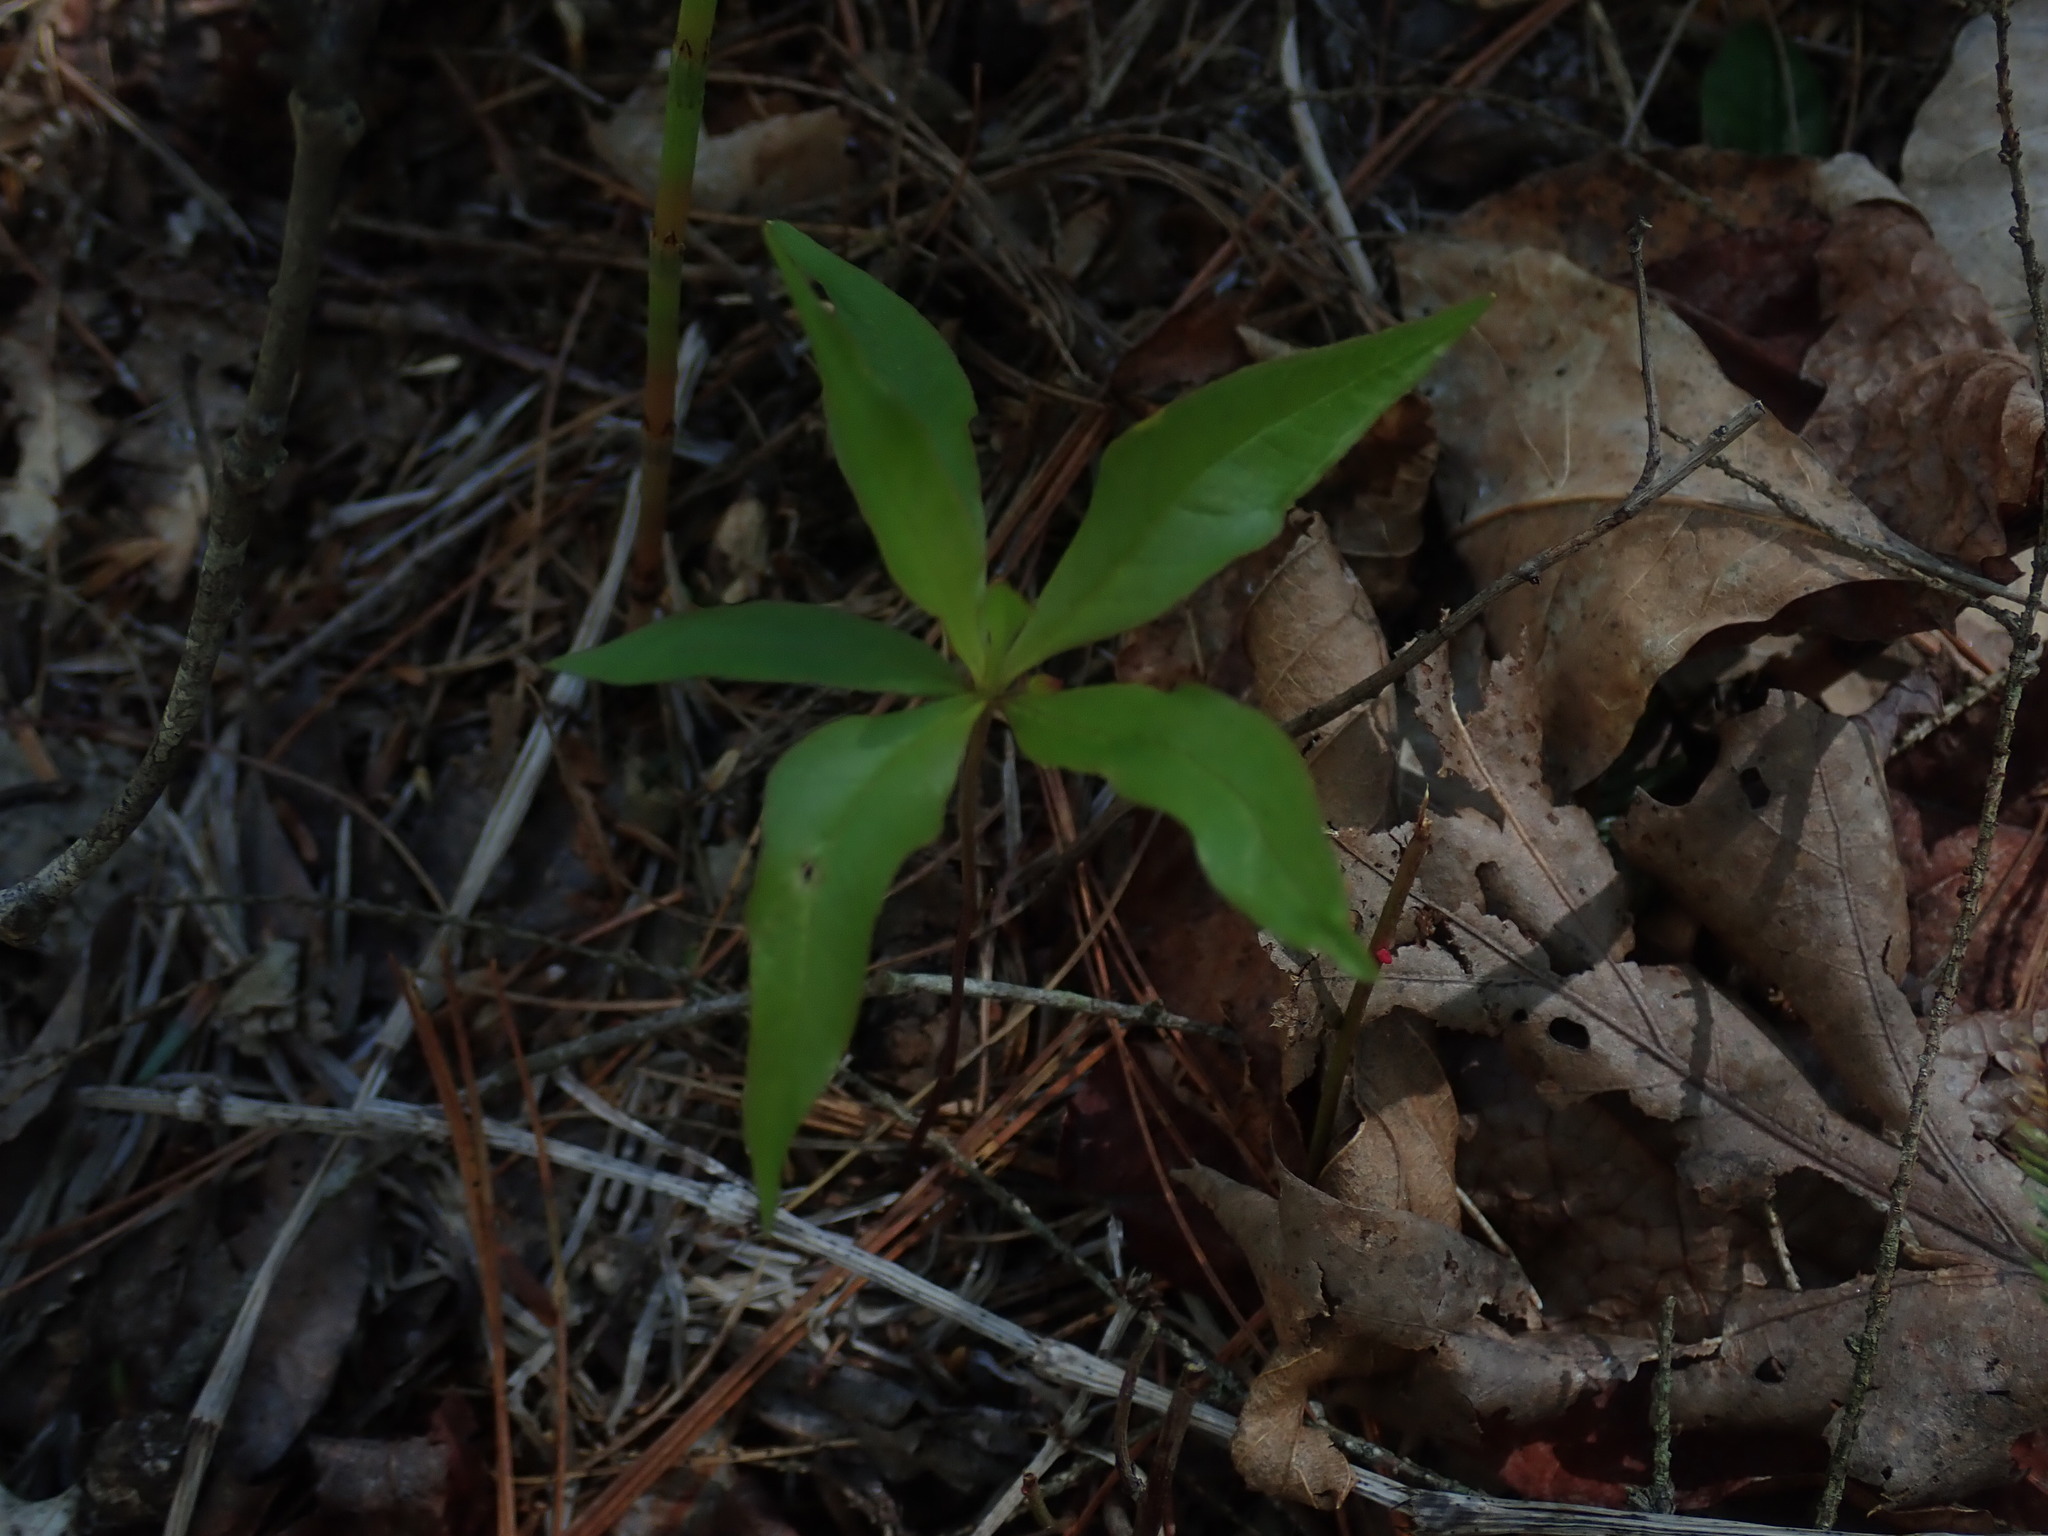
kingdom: Plantae
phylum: Tracheophyta
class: Magnoliopsida
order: Ericales
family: Primulaceae
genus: Lysimachia
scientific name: Lysimachia borealis
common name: American starflower
